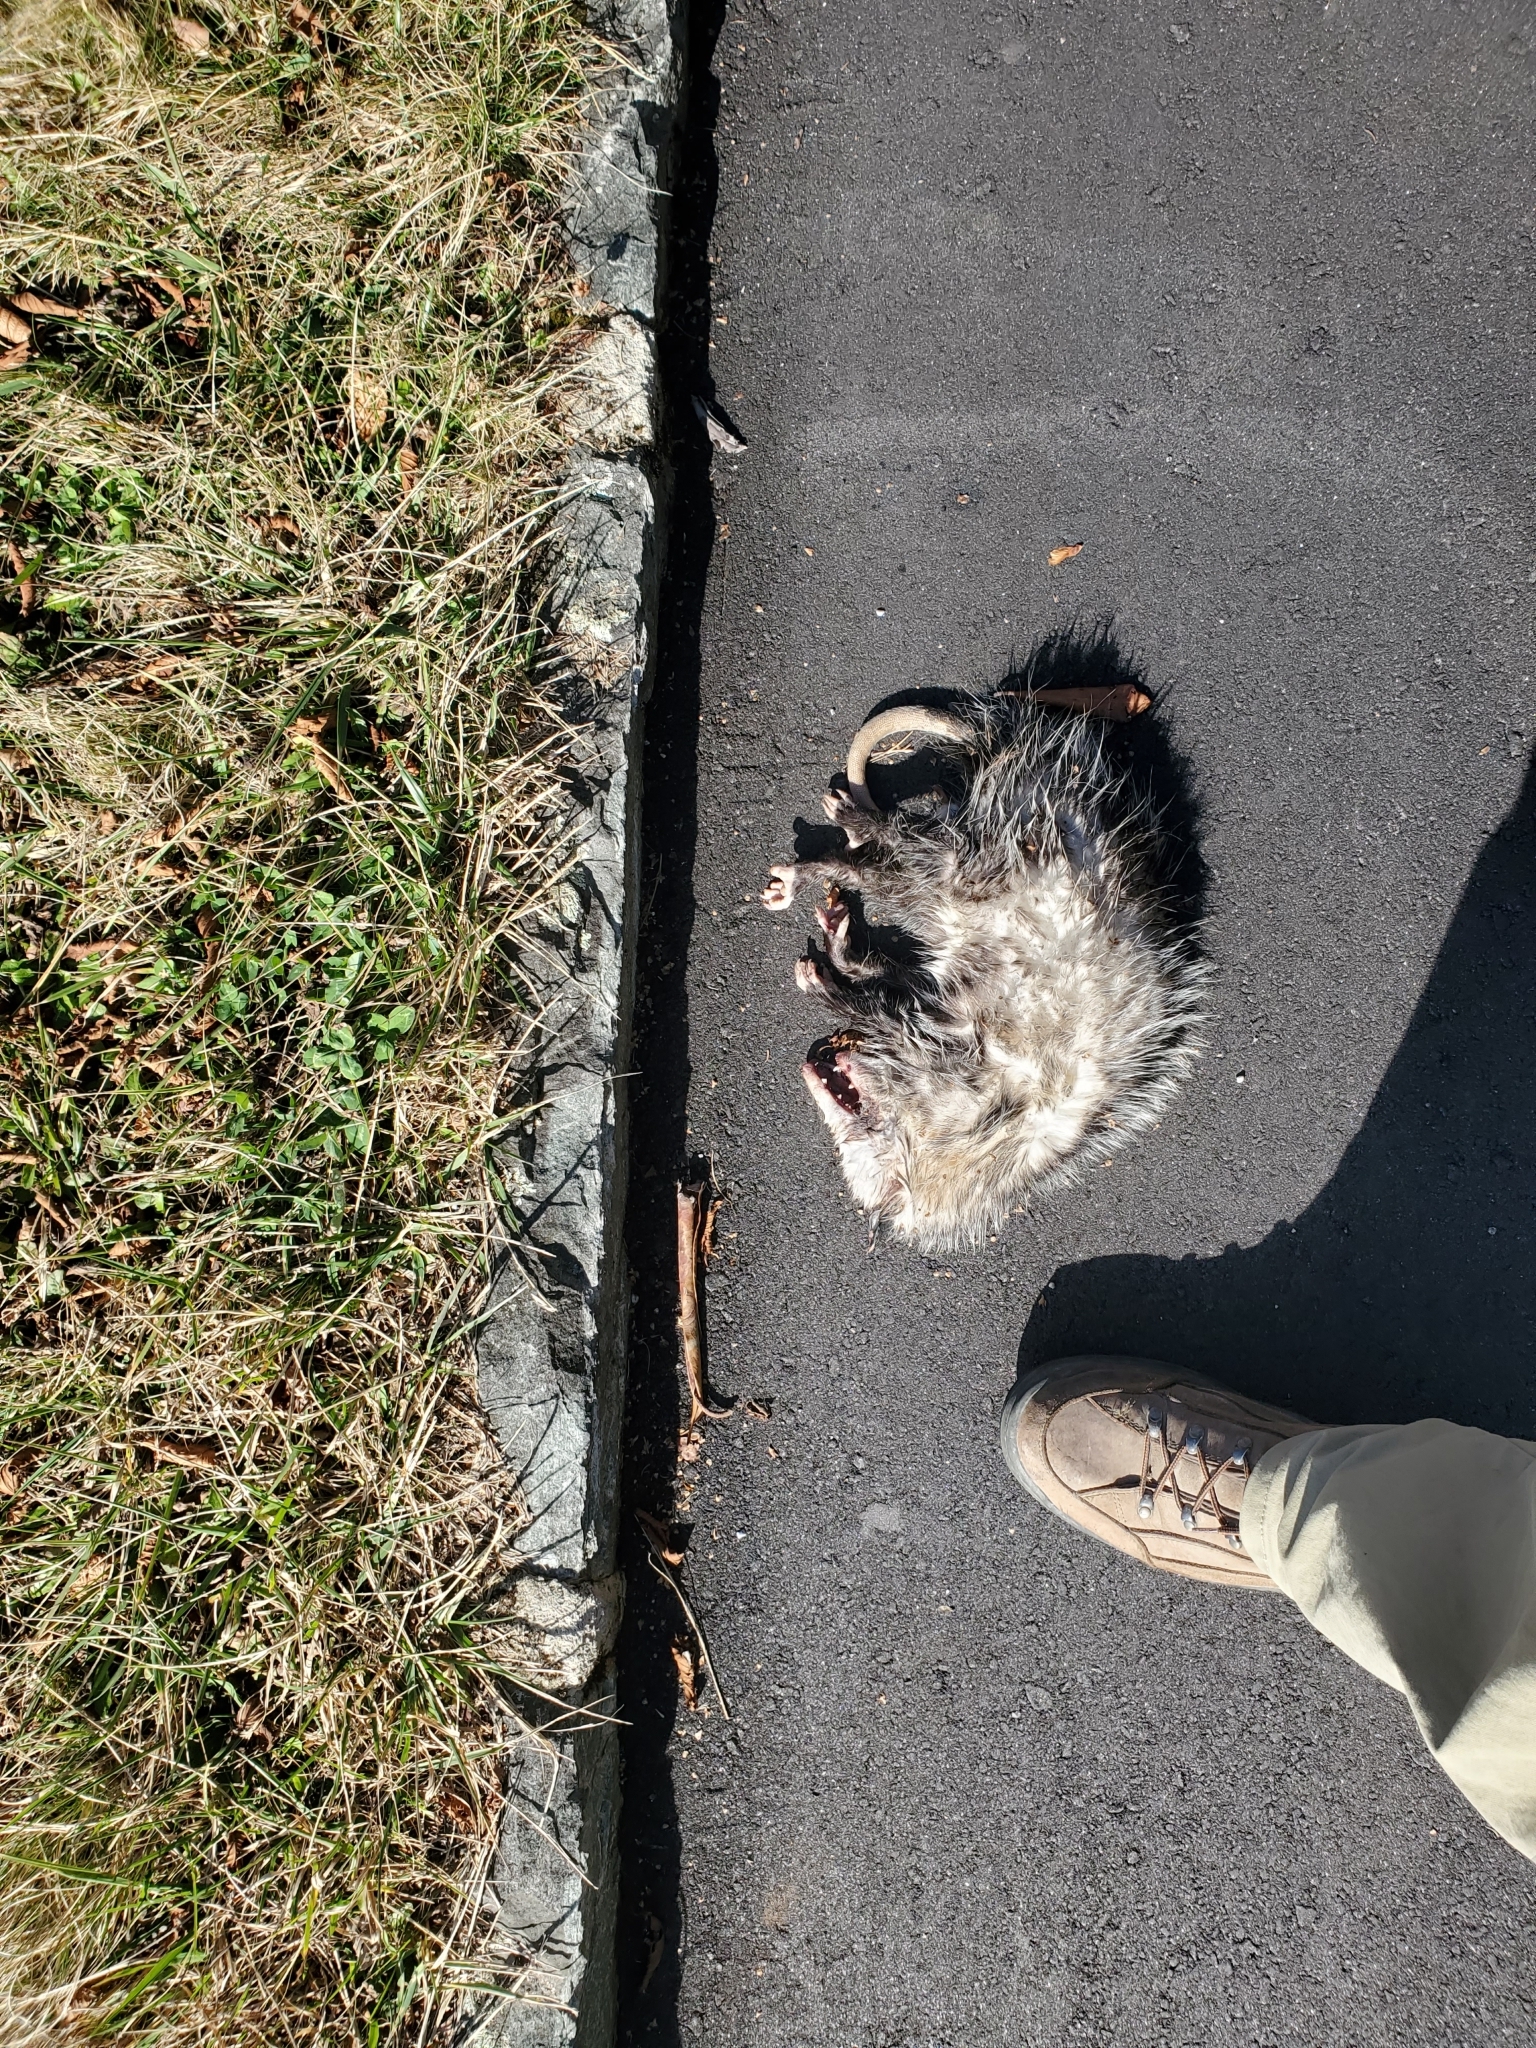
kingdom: Animalia
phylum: Chordata
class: Mammalia
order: Didelphimorphia
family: Didelphidae
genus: Didelphis
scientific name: Didelphis virginiana
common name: Virginia opossum
